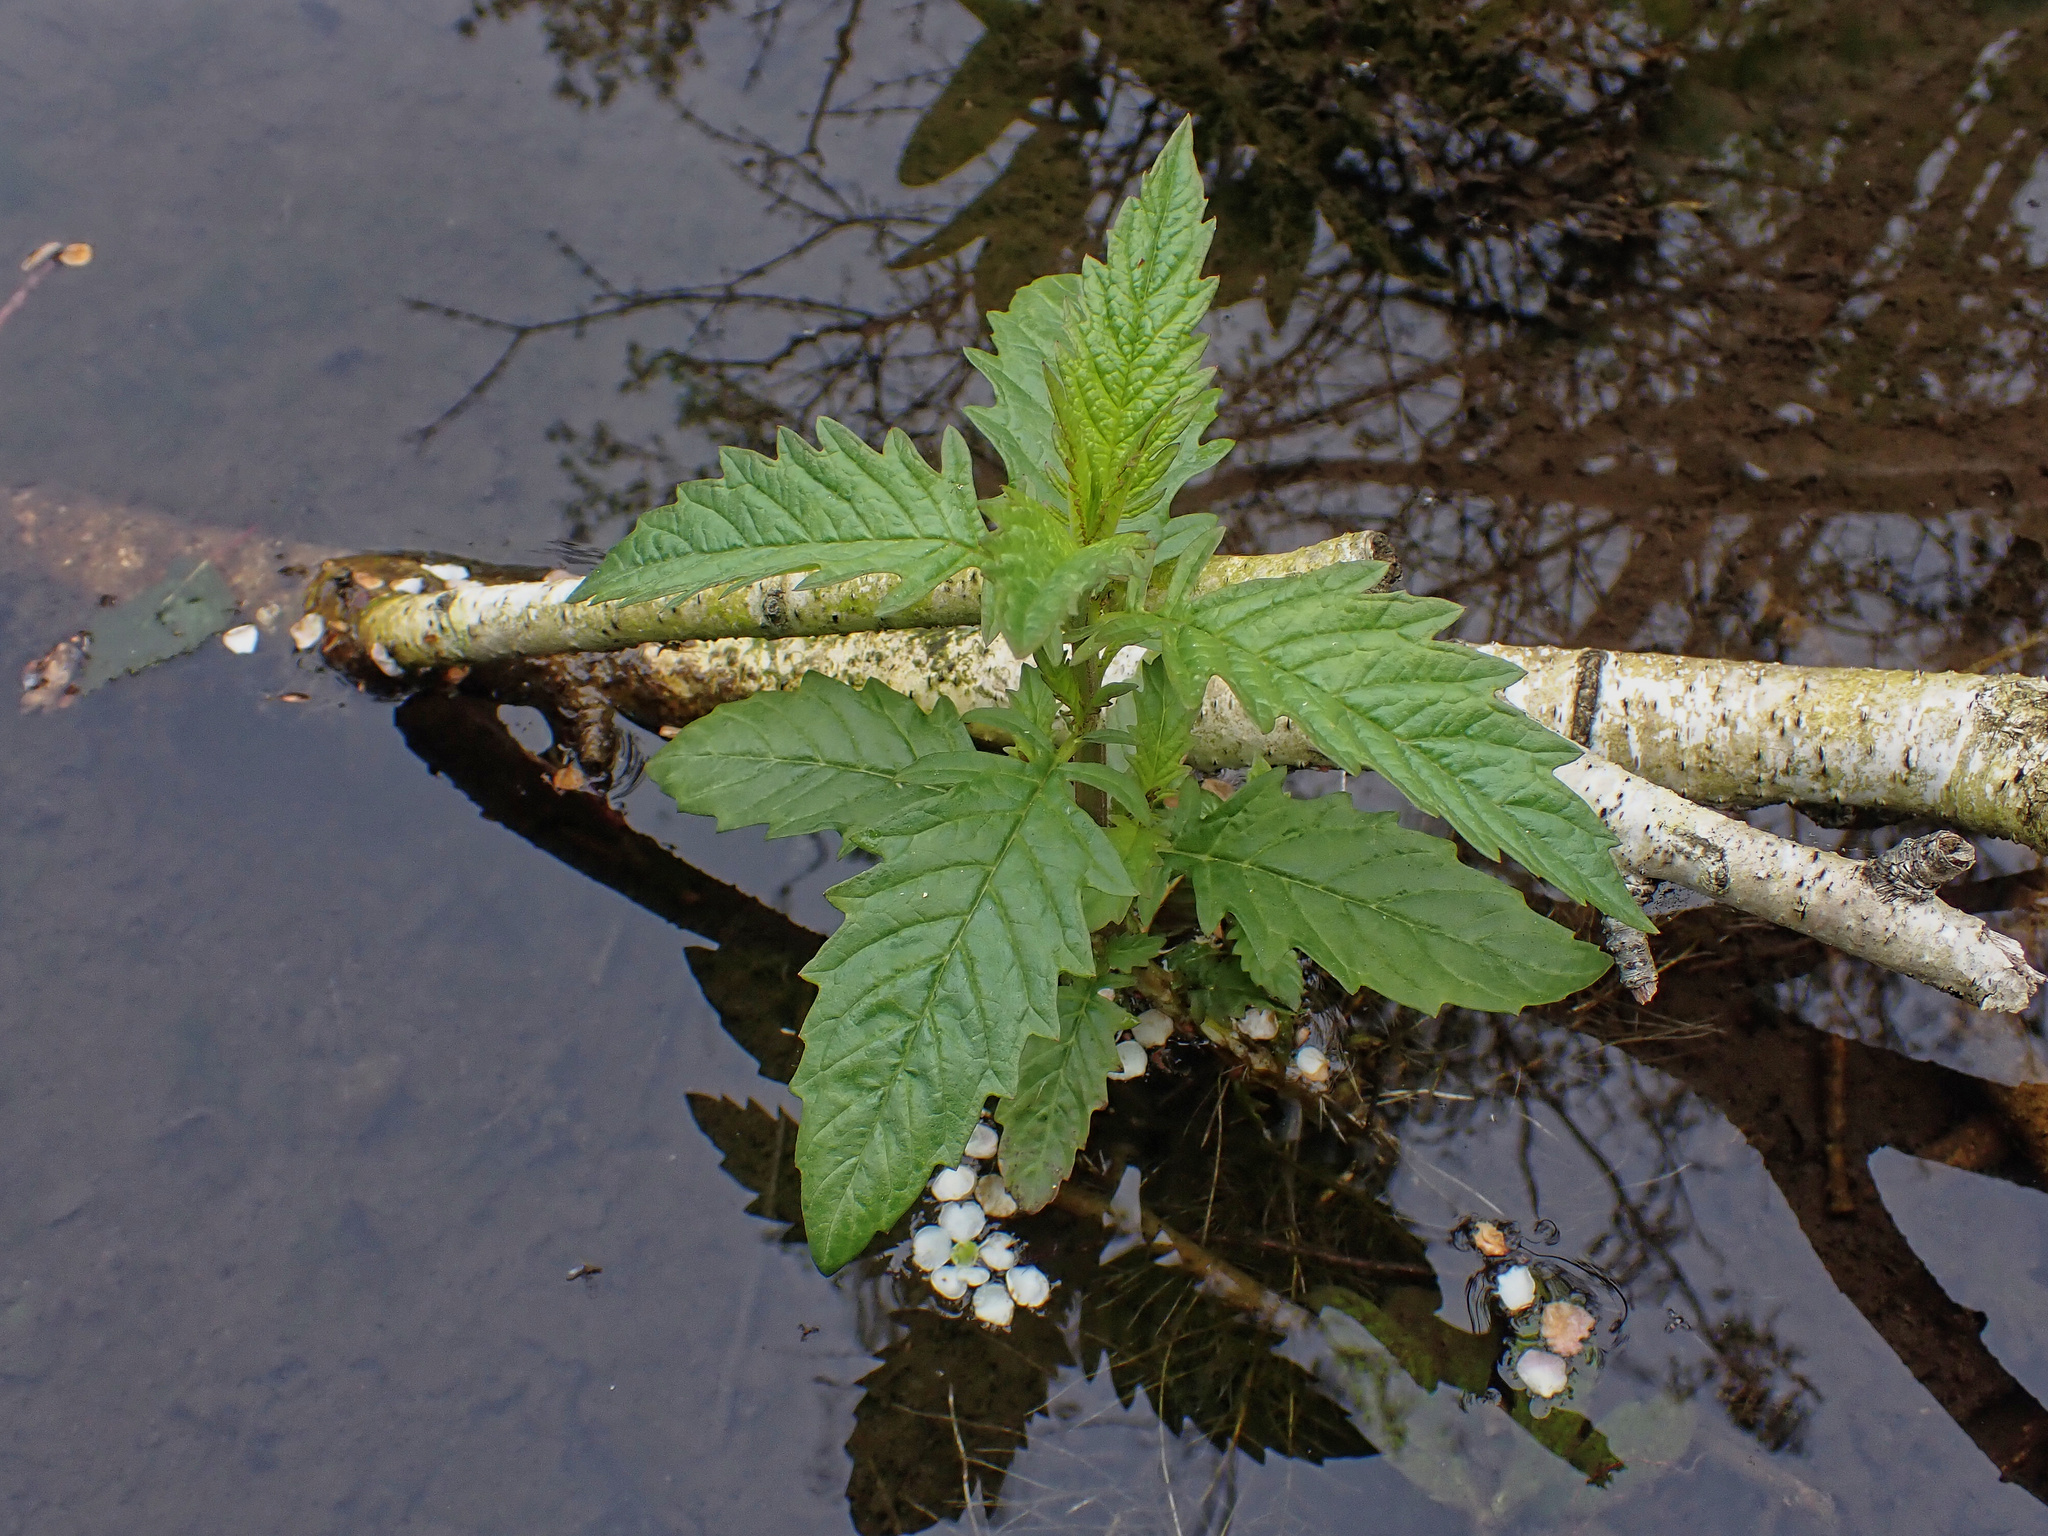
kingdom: Plantae
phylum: Tracheophyta
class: Magnoliopsida
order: Lamiales
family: Lamiaceae
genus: Lycopus
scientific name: Lycopus europaeus
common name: European bugleweed
